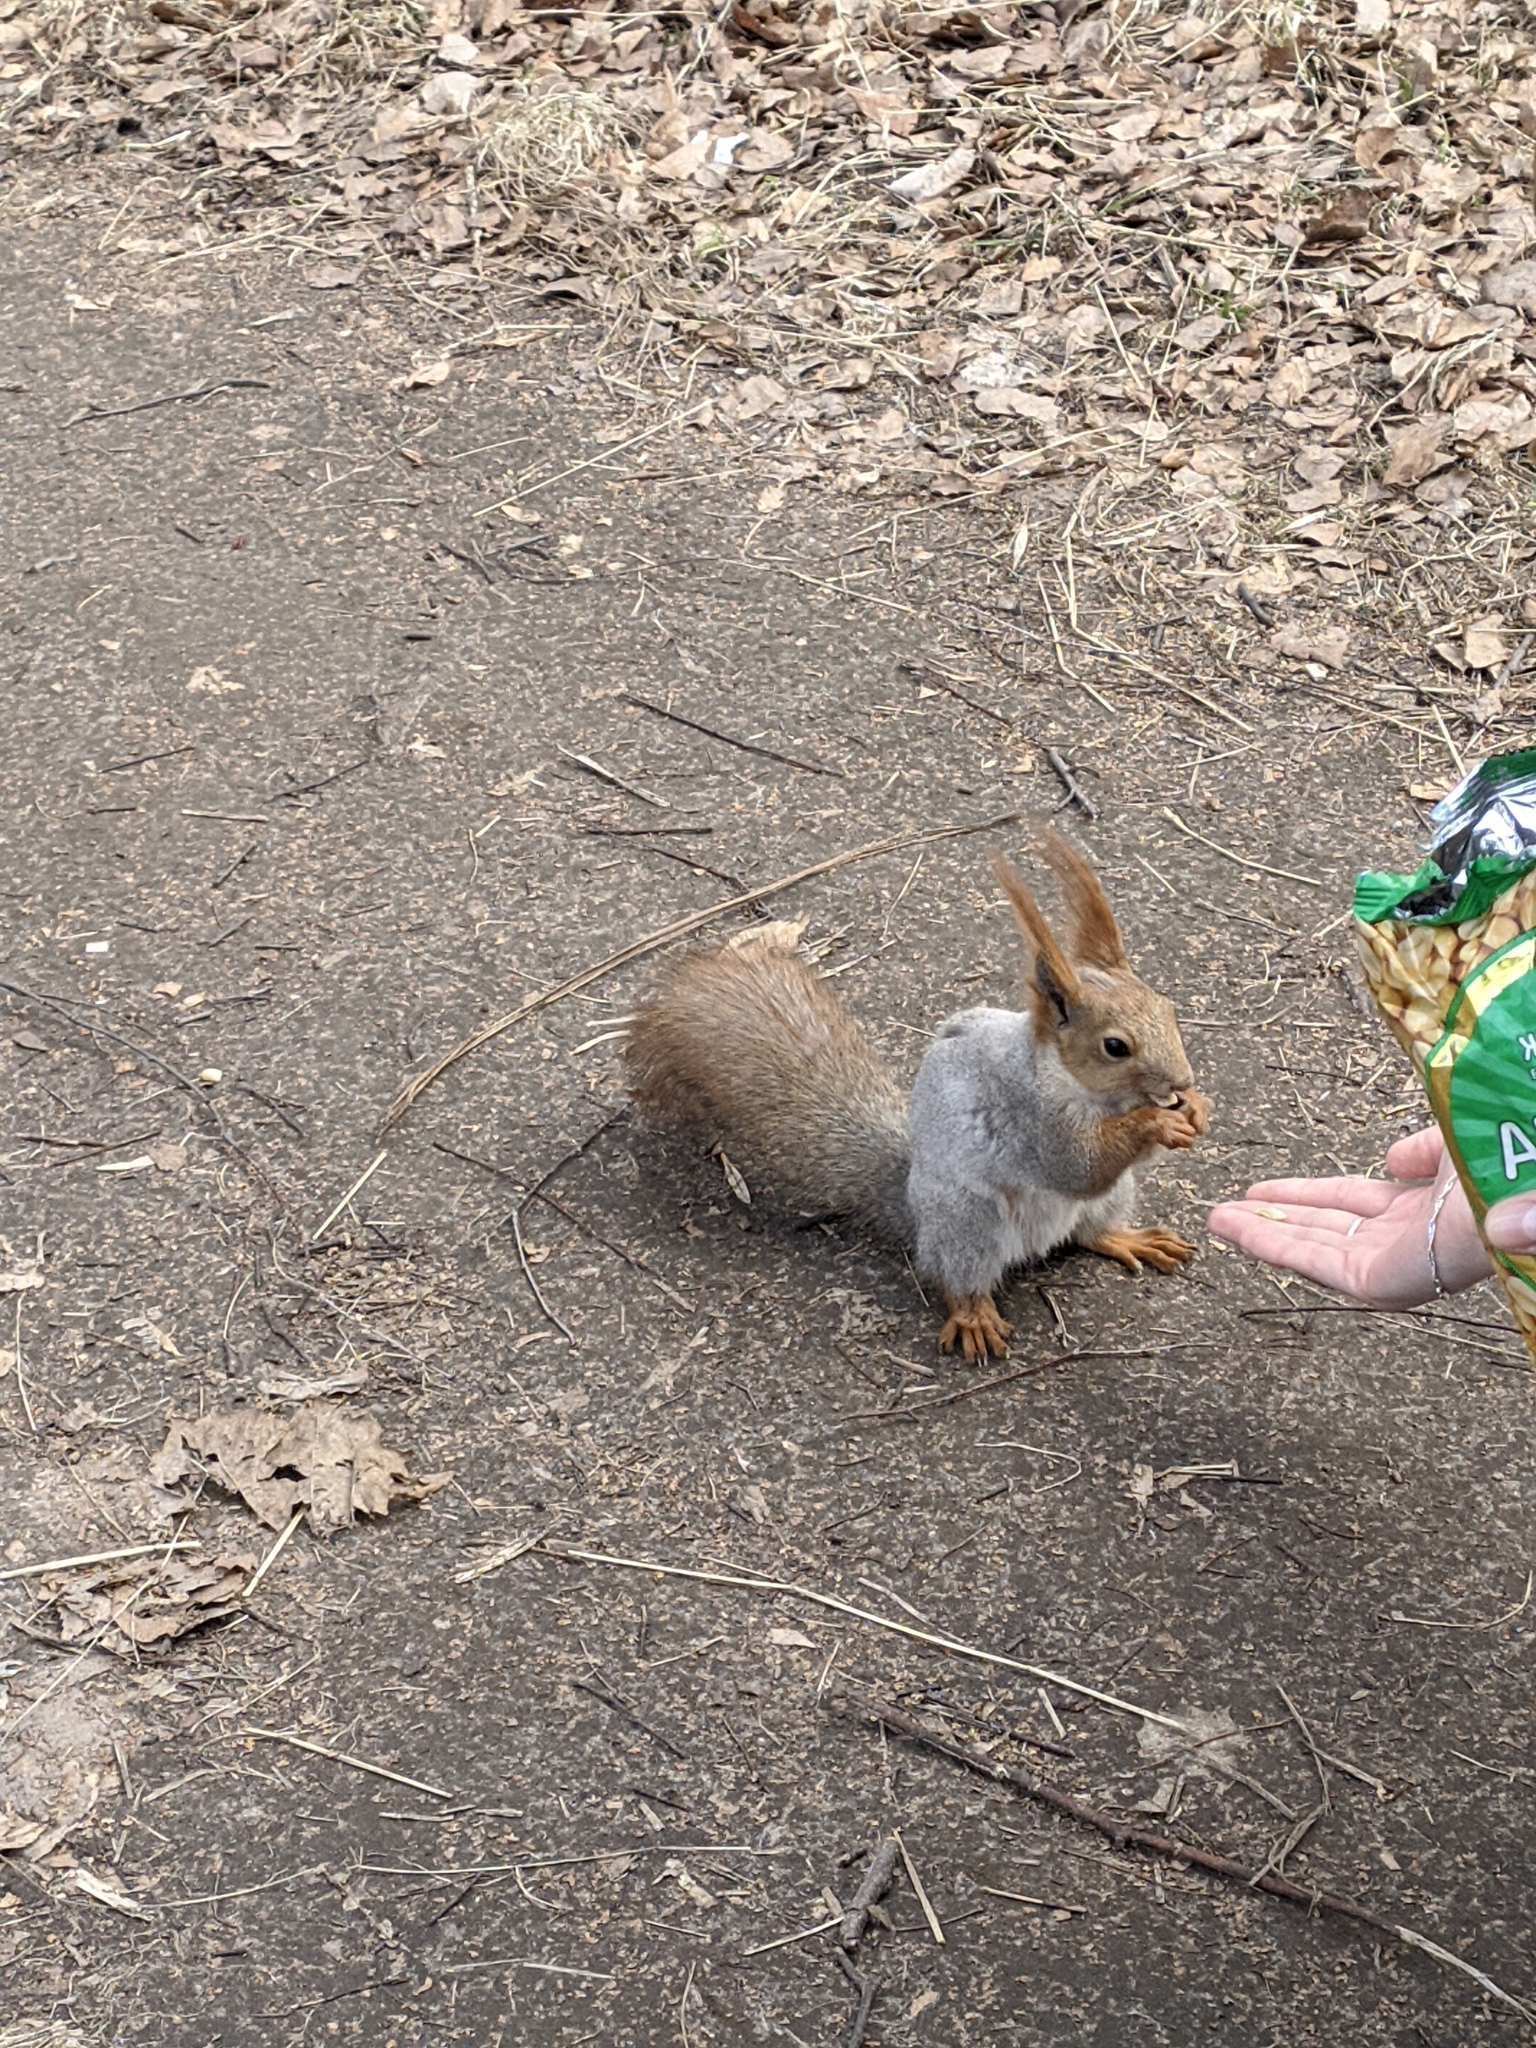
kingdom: Animalia
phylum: Chordata
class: Mammalia
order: Rodentia
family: Sciuridae
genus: Sciurus
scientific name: Sciurus vulgaris
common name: Eurasian red squirrel
